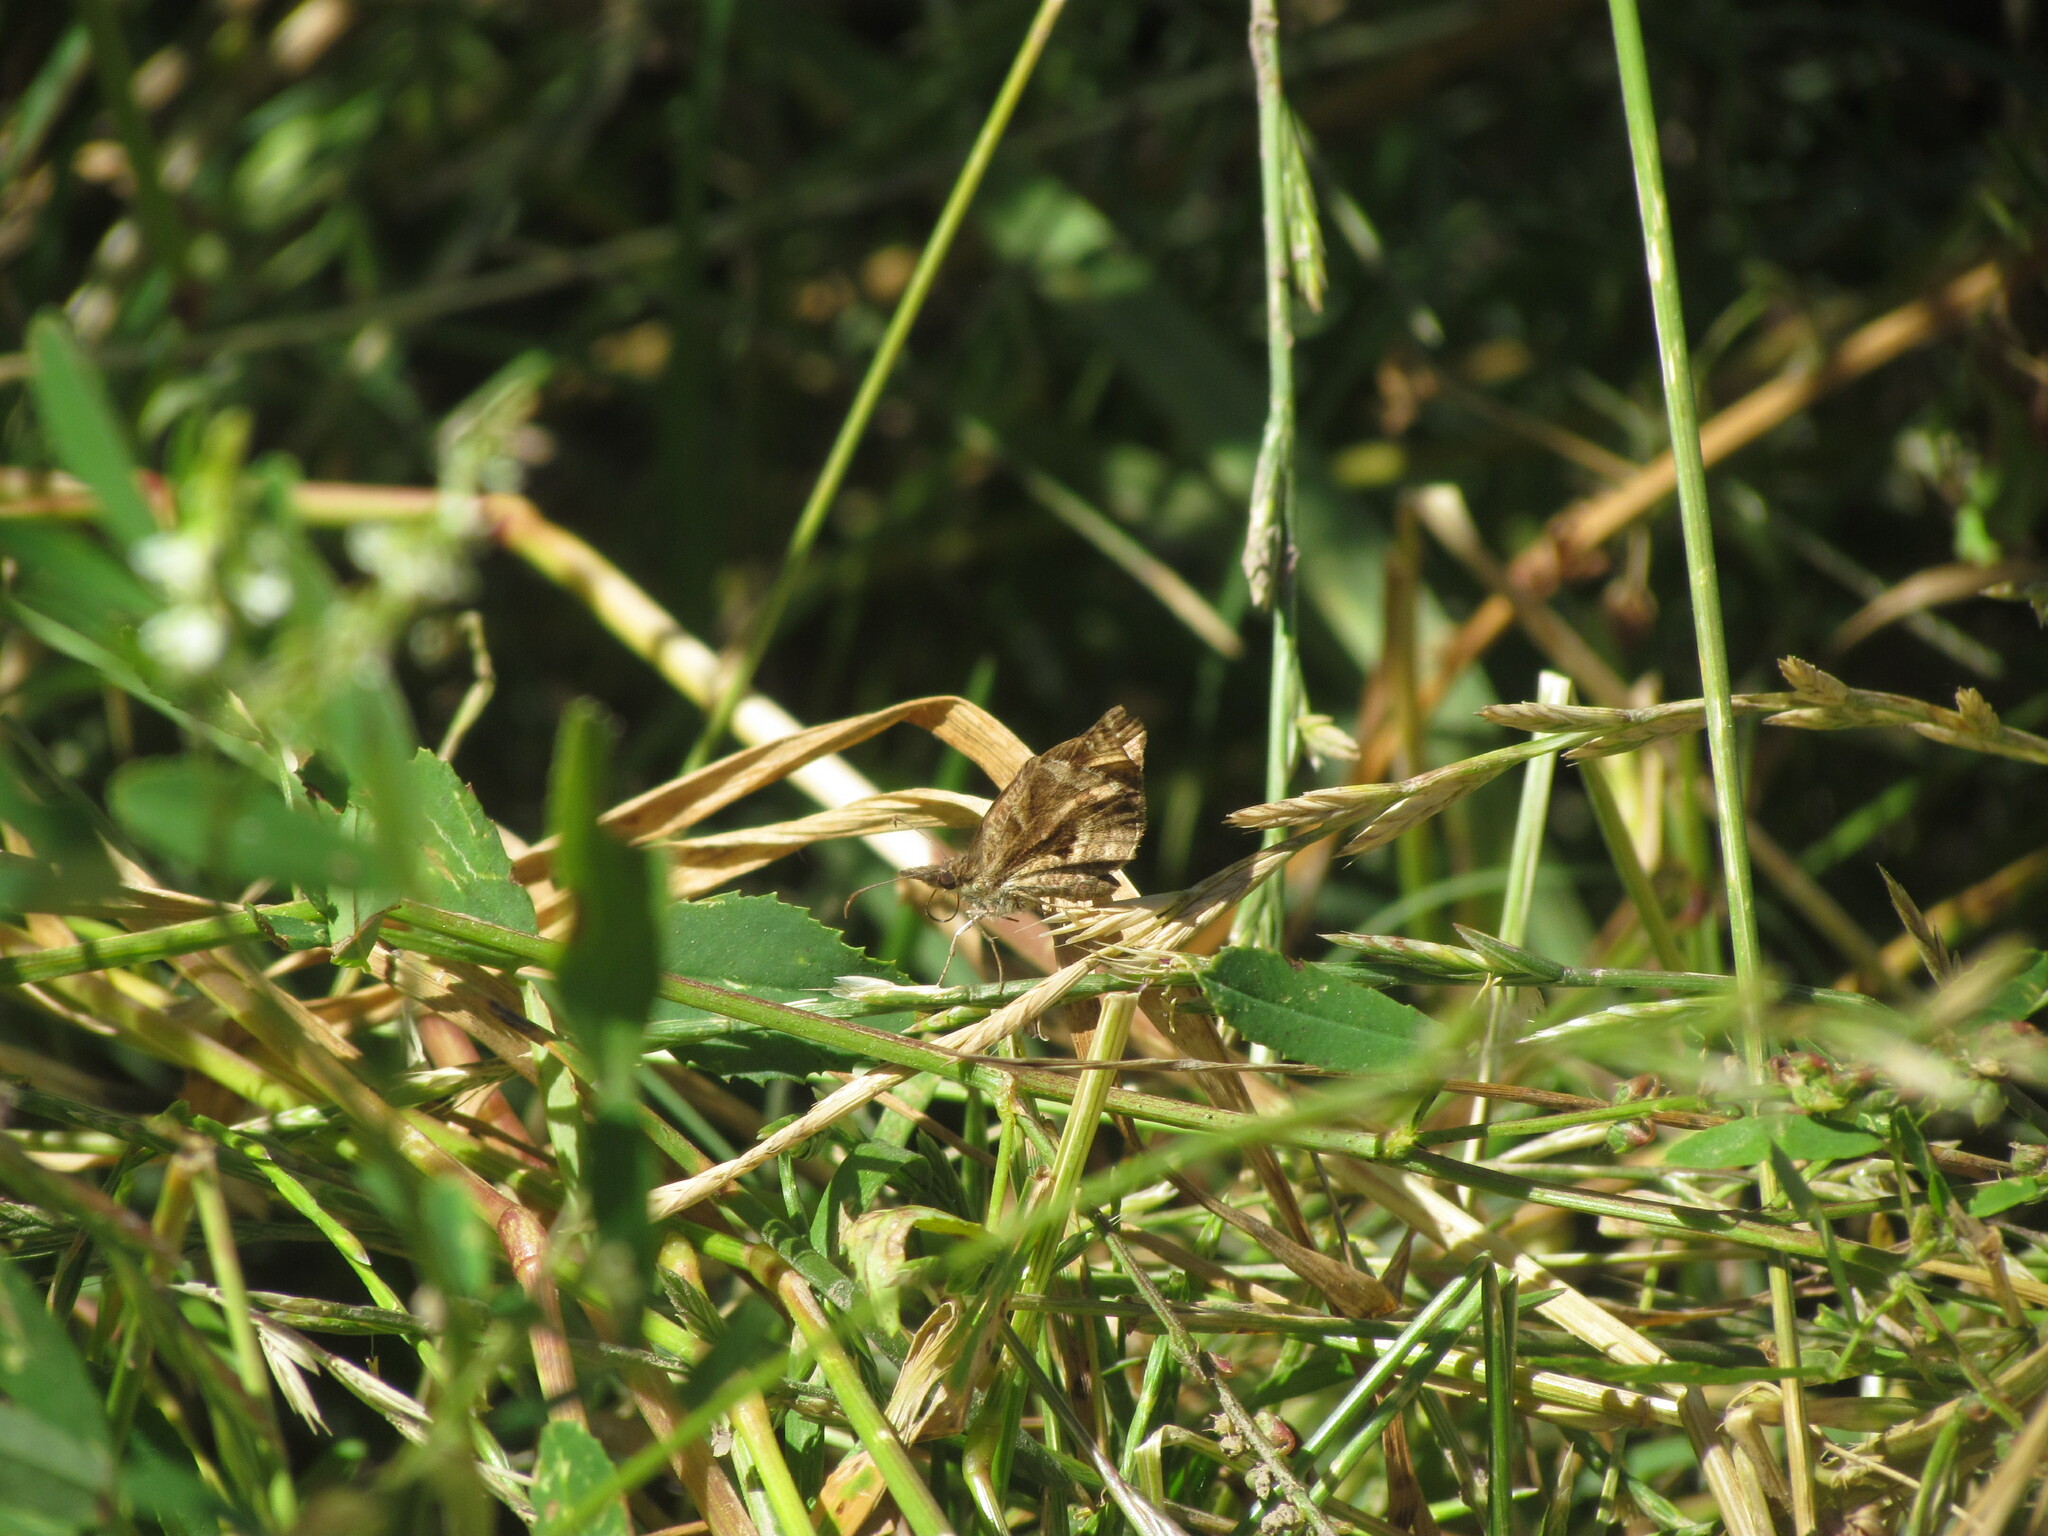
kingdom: Animalia
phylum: Arthropoda
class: Insecta
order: Lepidoptera
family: Hesperiidae
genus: Anisochoria
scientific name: Anisochoria sublimbata
